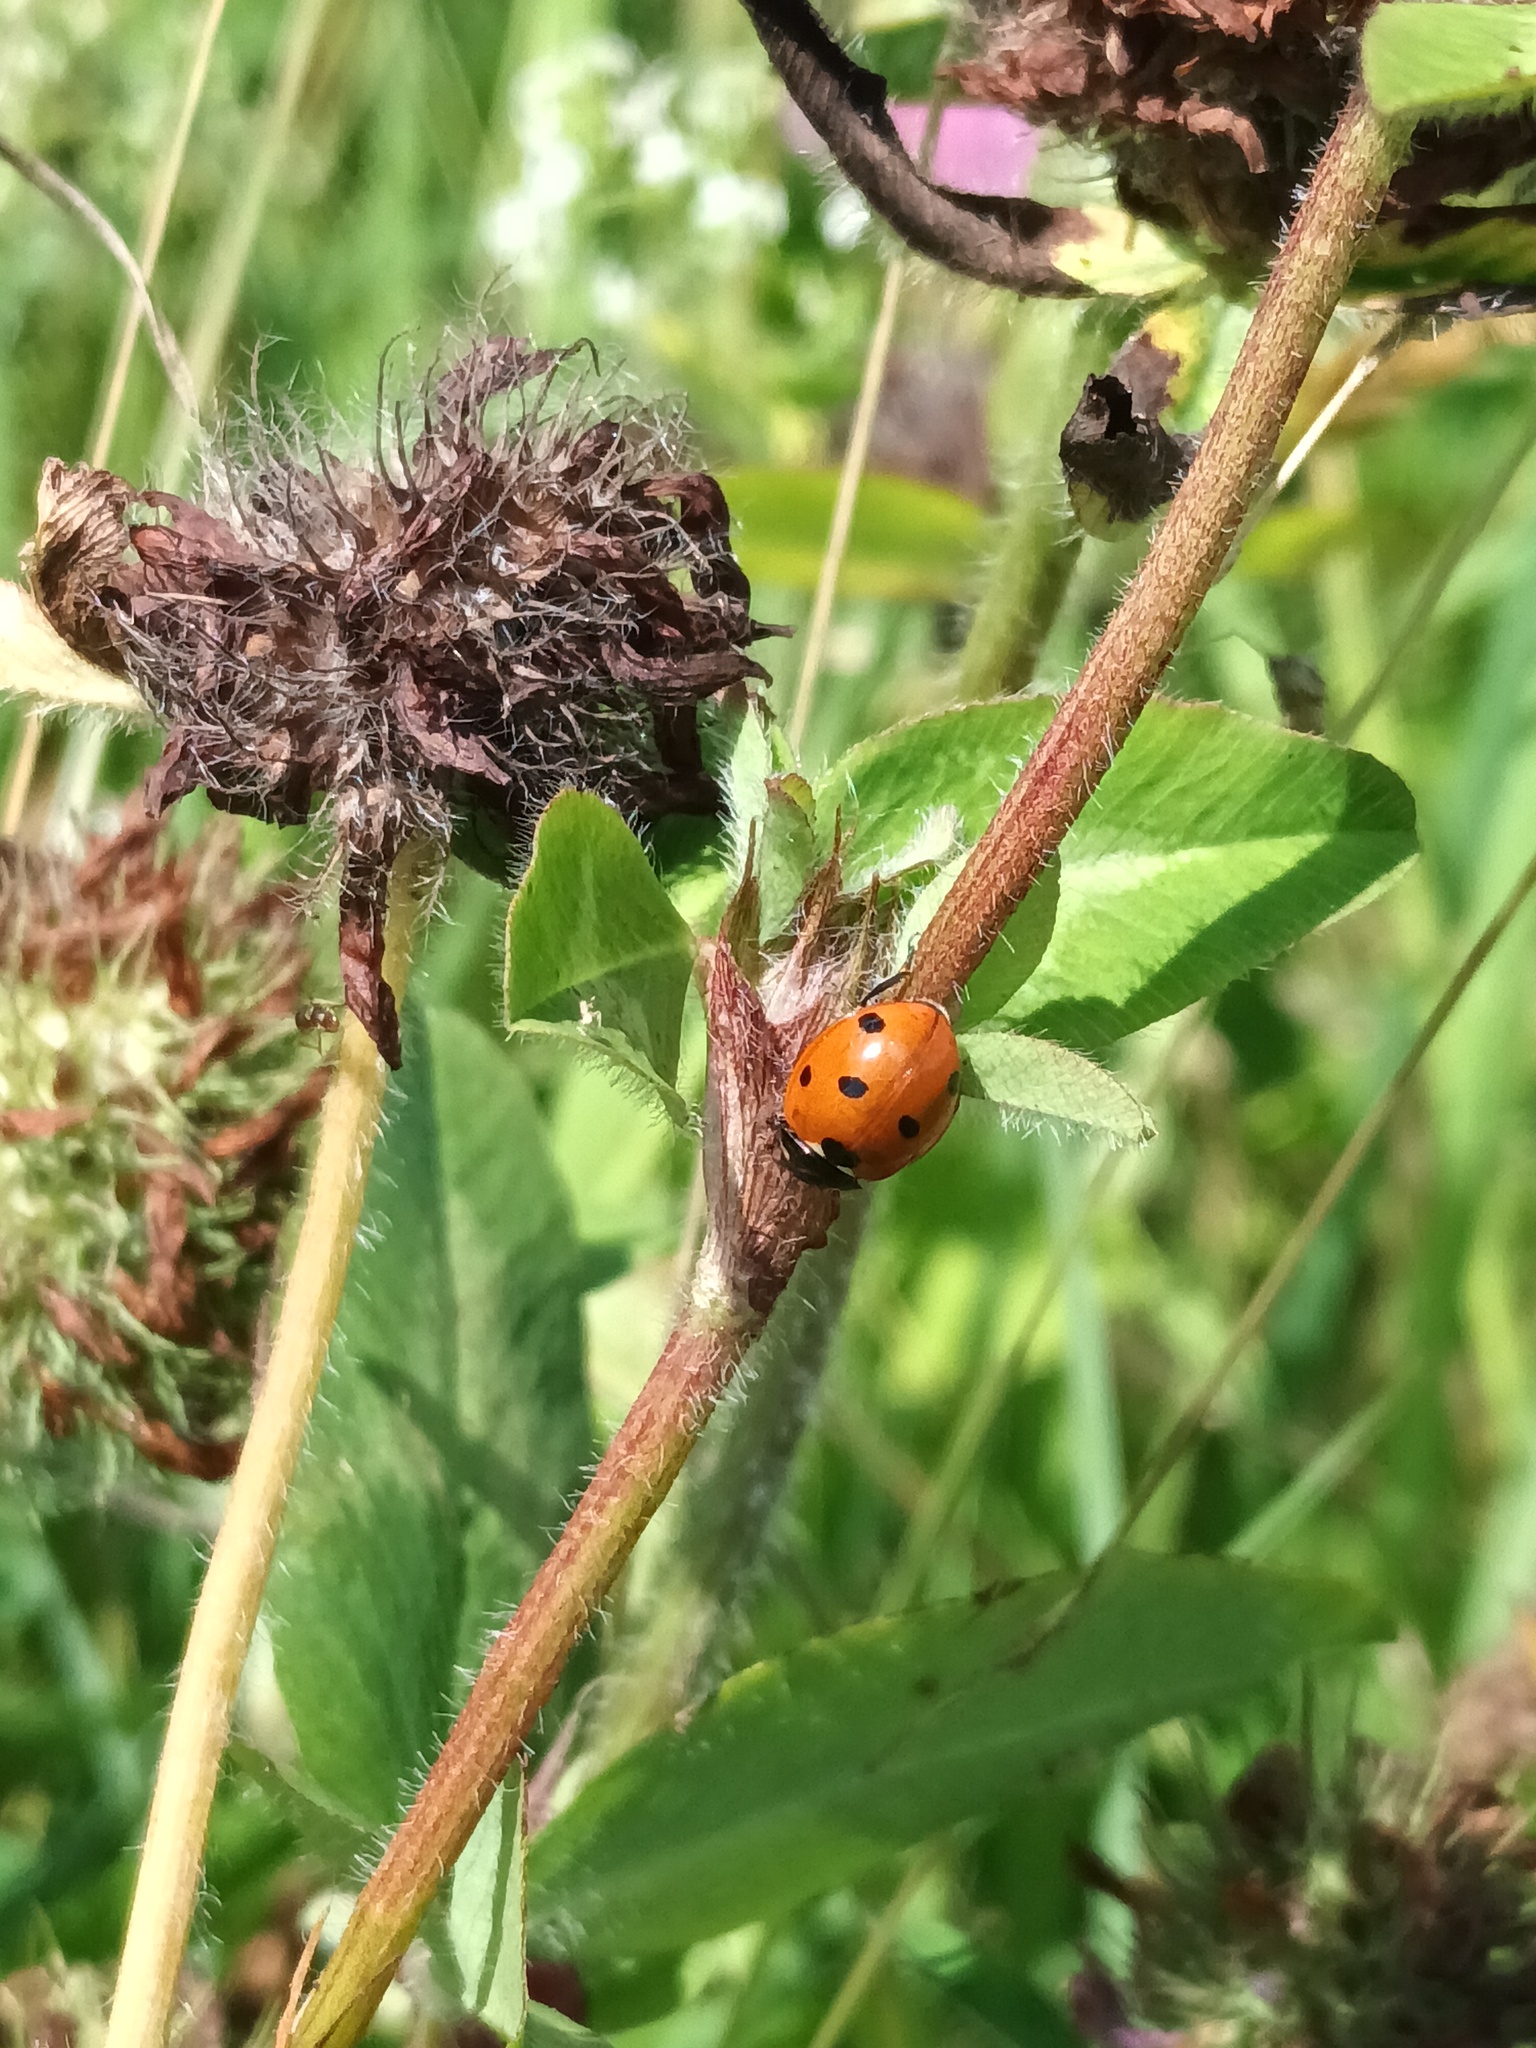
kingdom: Animalia
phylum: Arthropoda
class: Insecta
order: Coleoptera
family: Coccinellidae
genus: Coccinella
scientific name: Coccinella septempunctata
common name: Sevenspotted lady beetle
